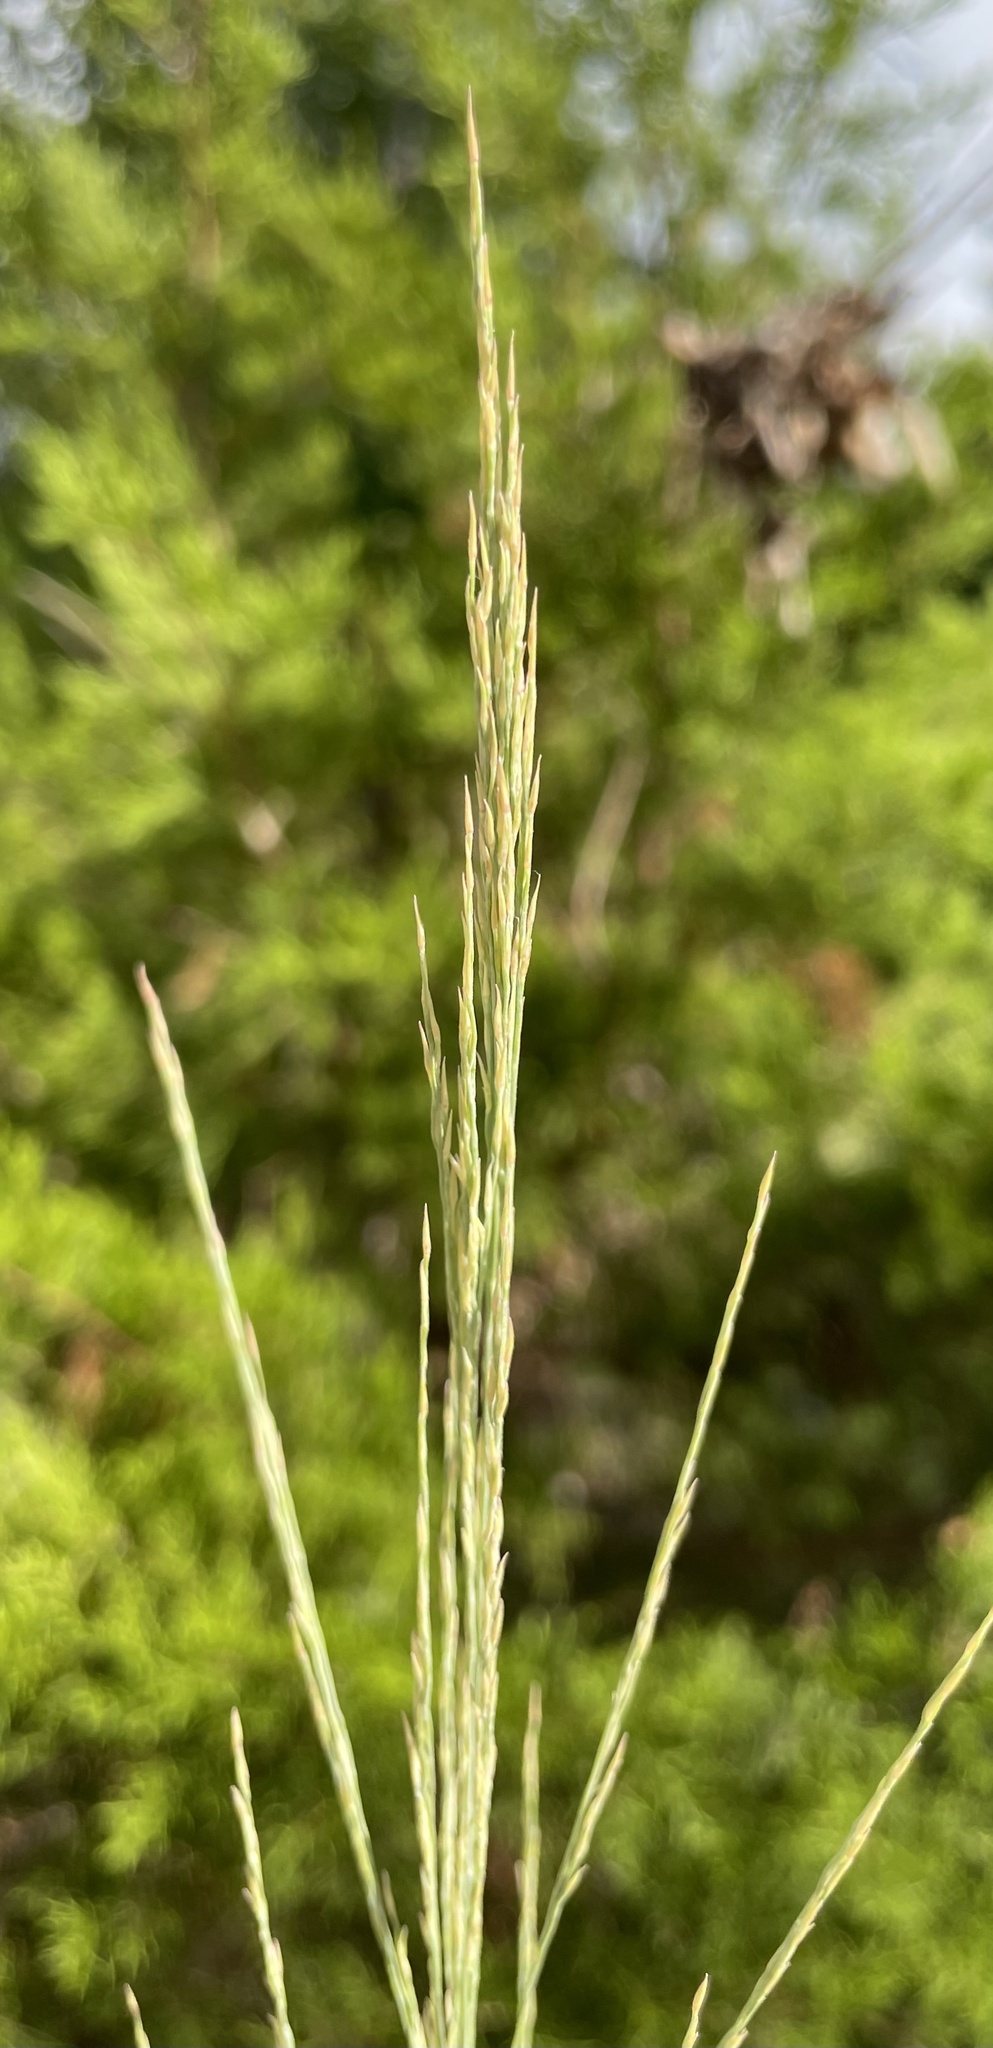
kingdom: Plantae
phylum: Tracheophyta
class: Liliopsida
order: Poales
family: Poaceae
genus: Panicum
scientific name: Panicum virgatum
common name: Switchgrass
